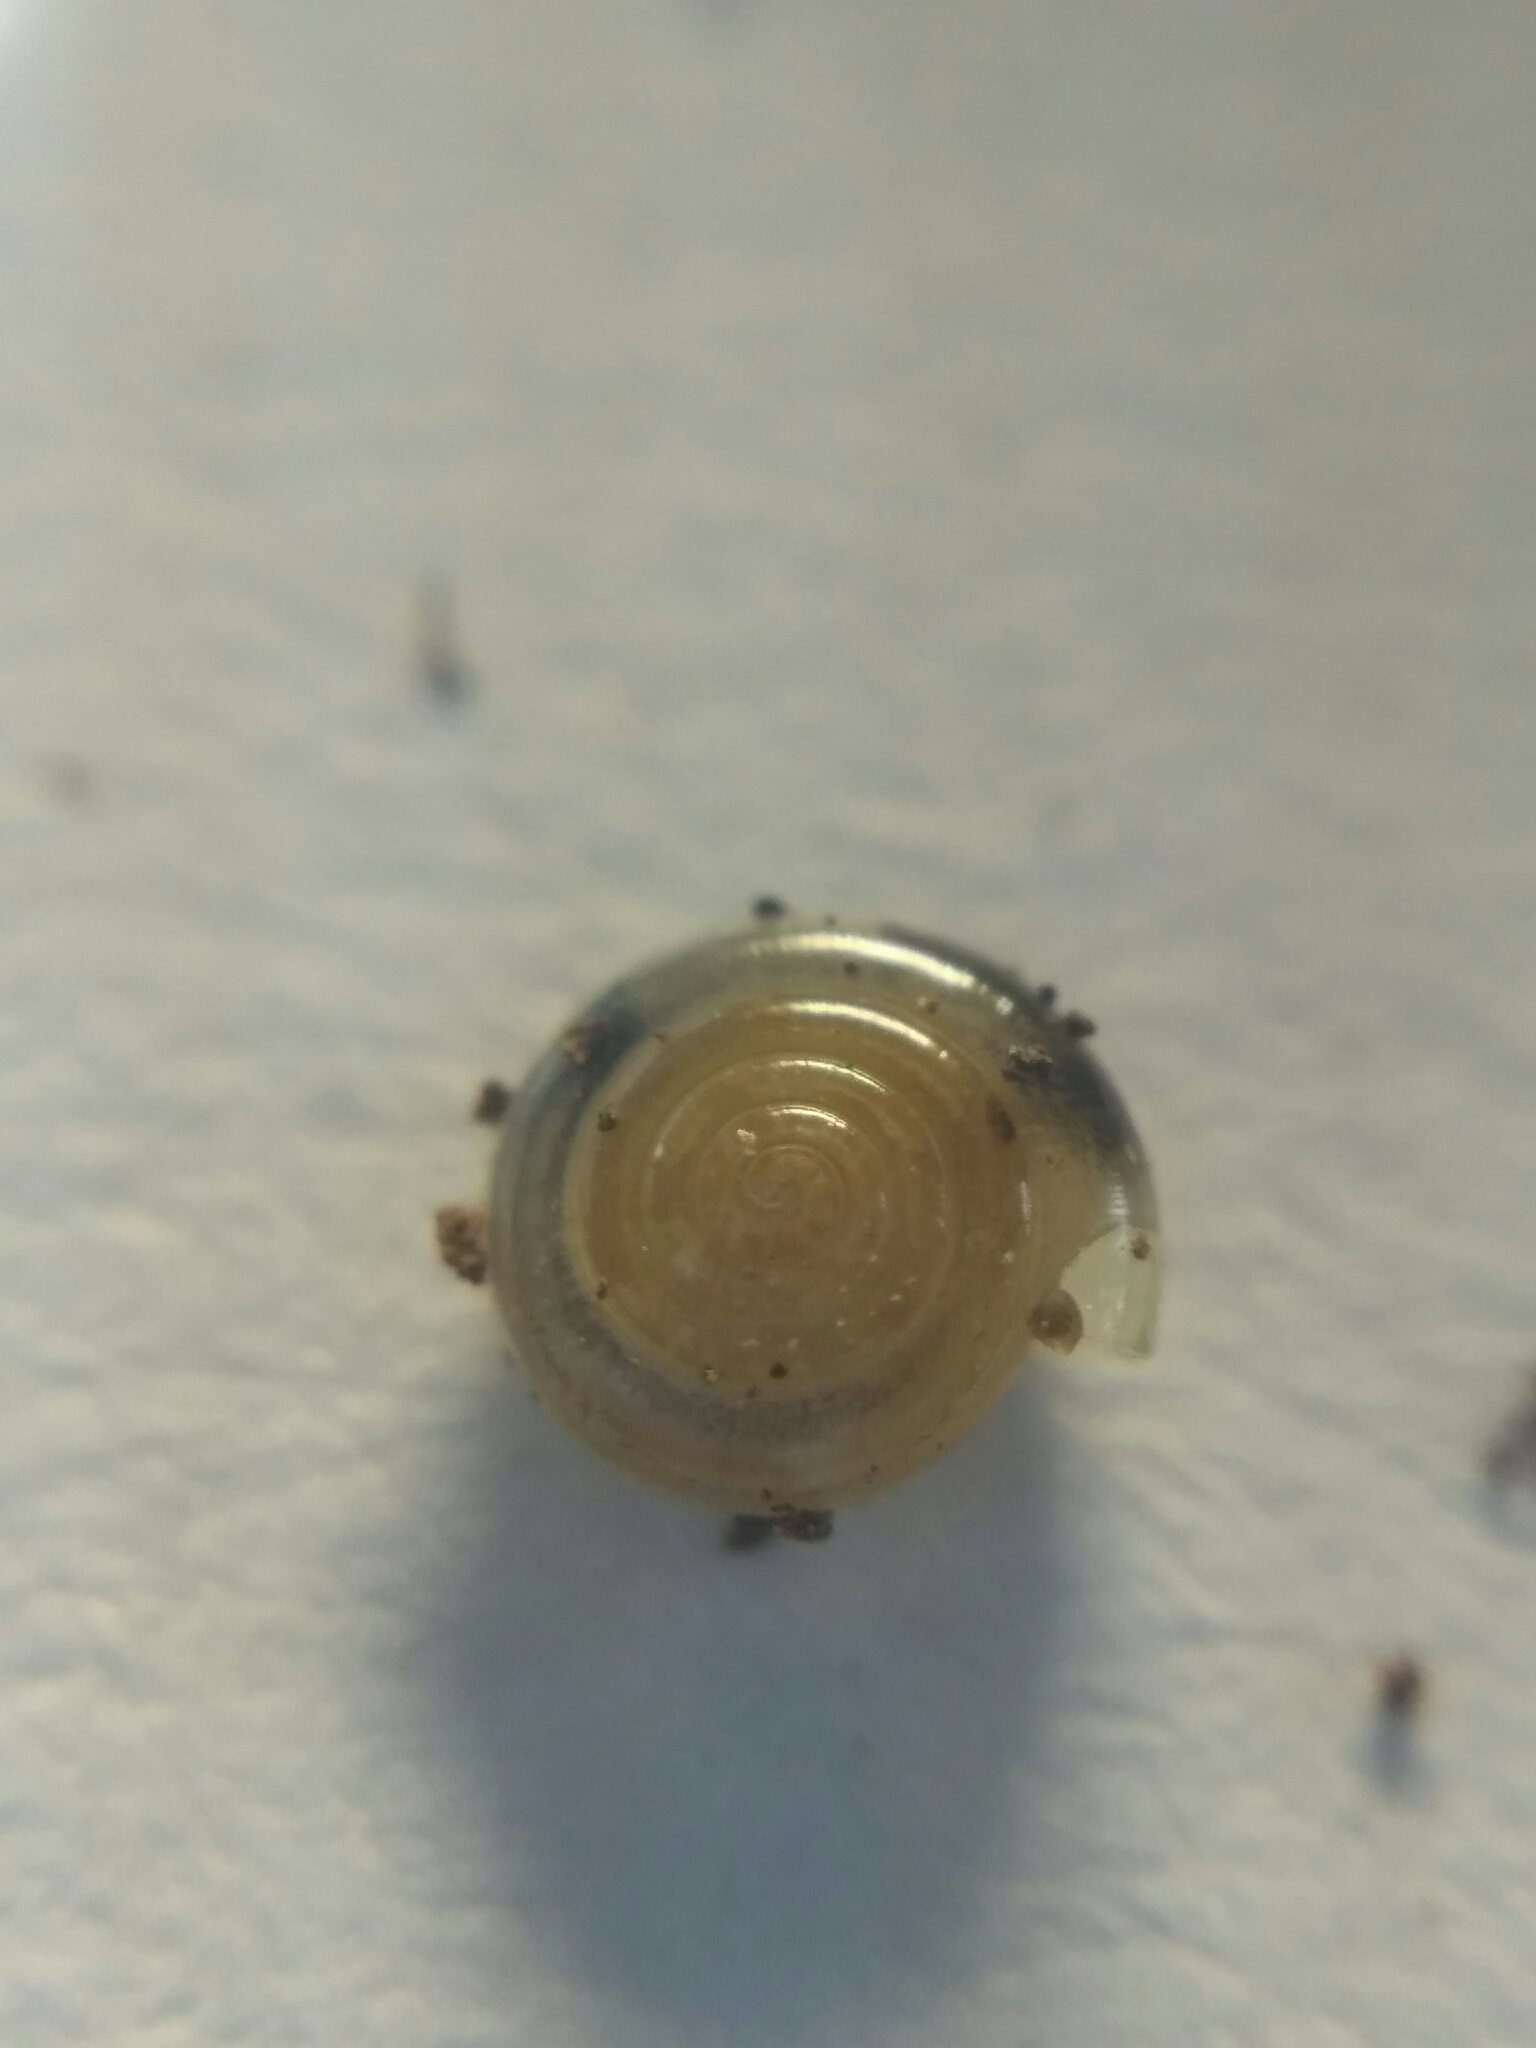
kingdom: Animalia
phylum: Mollusca
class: Gastropoda
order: Stylommatophora
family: Pristilomatidae
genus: Vitrea
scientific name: Vitrea diaphana
